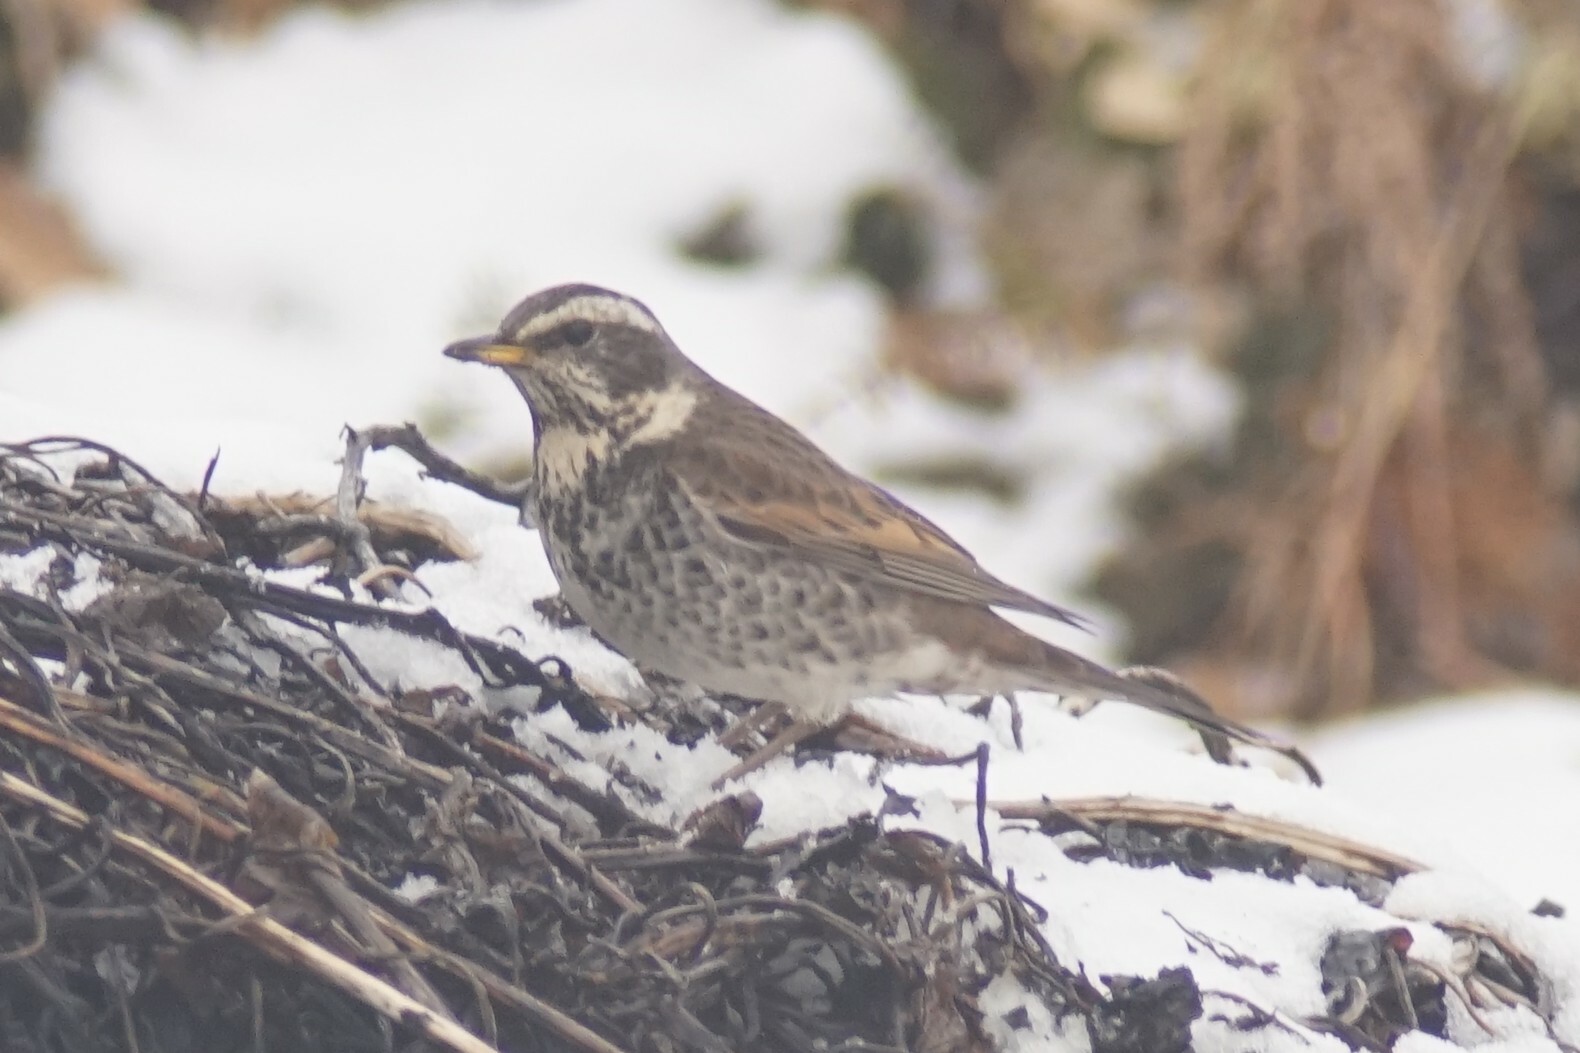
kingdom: Animalia
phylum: Chordata
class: Aves
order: Passeriformes
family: Turdidae
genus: Turdus
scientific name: Turdus eunomus
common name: Dusky thrush
